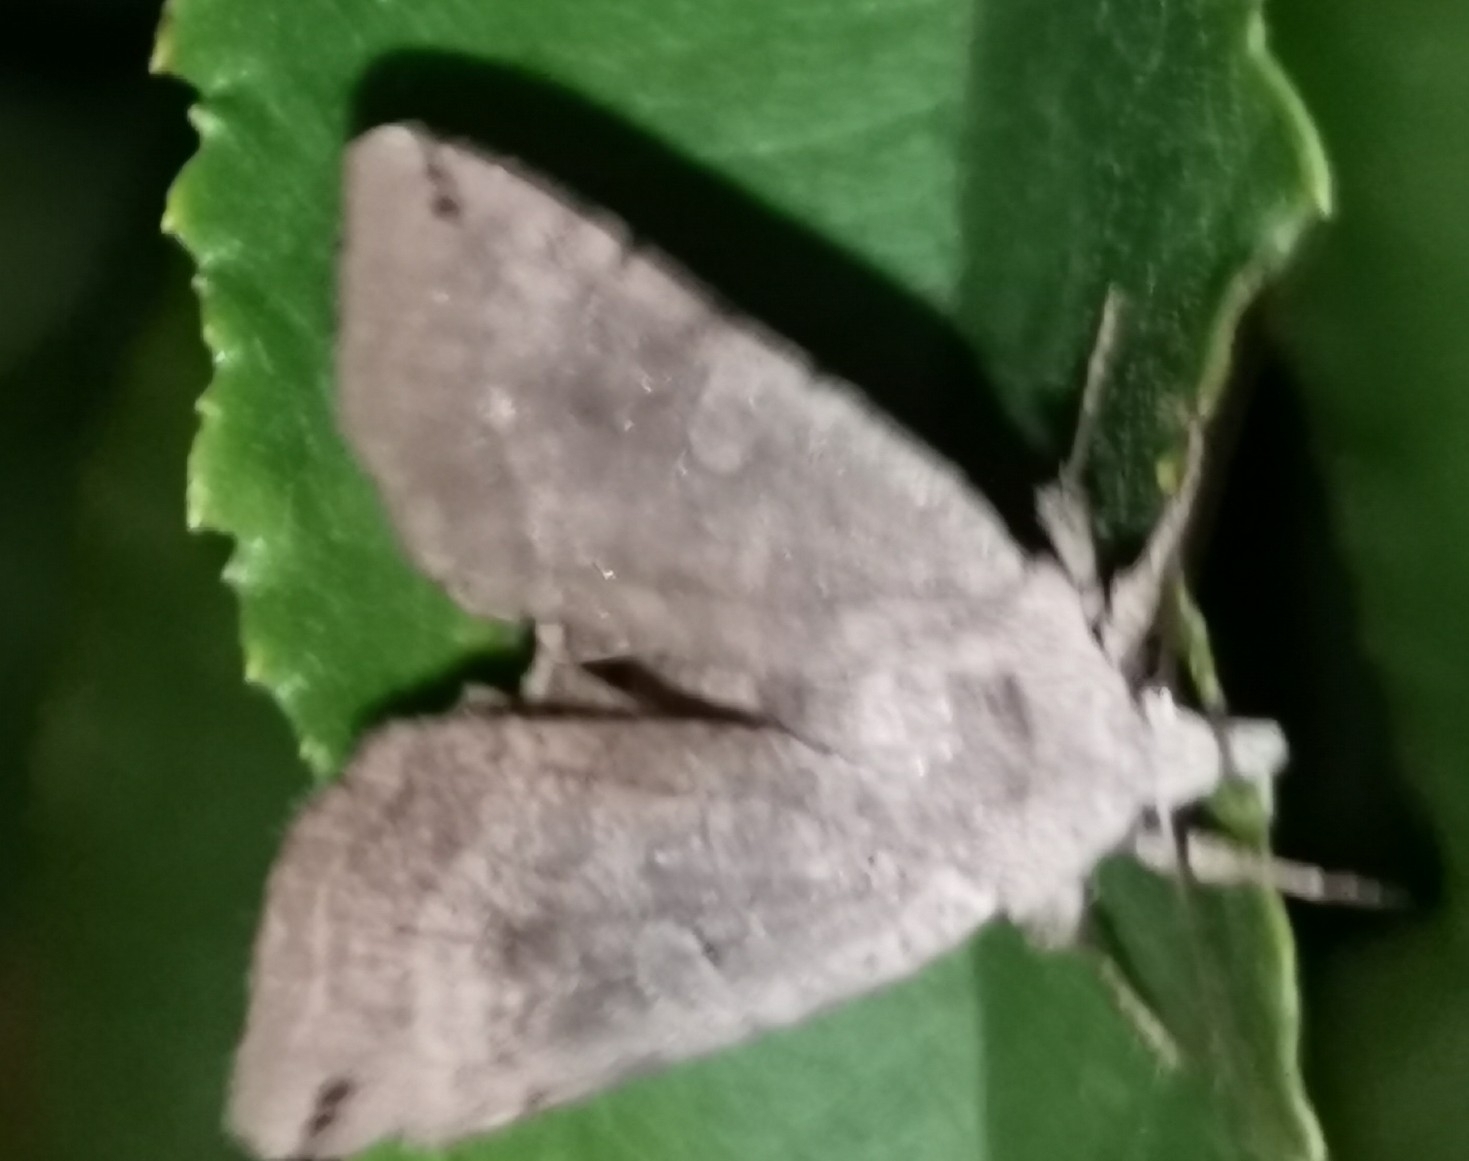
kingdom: Animalia
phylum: Arthropoda
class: Insecta
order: Lepidoptera
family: Noctuidae
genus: Xestia
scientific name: Xestia baja
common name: Dotted clay
